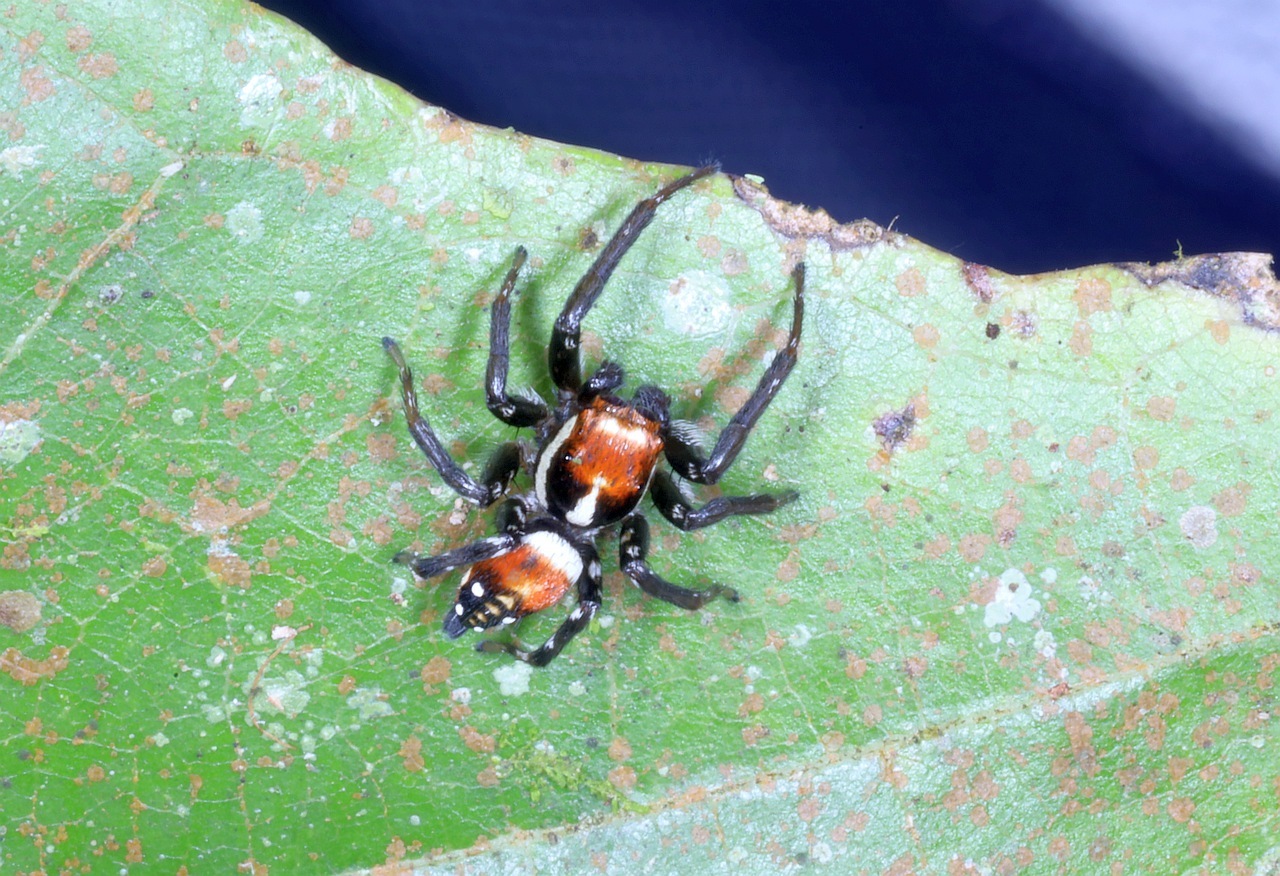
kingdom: Animalia
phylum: Arthropoda
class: Arachnida
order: Araneae
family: Salticidae
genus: Nycerella
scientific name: Nycerella aprica
